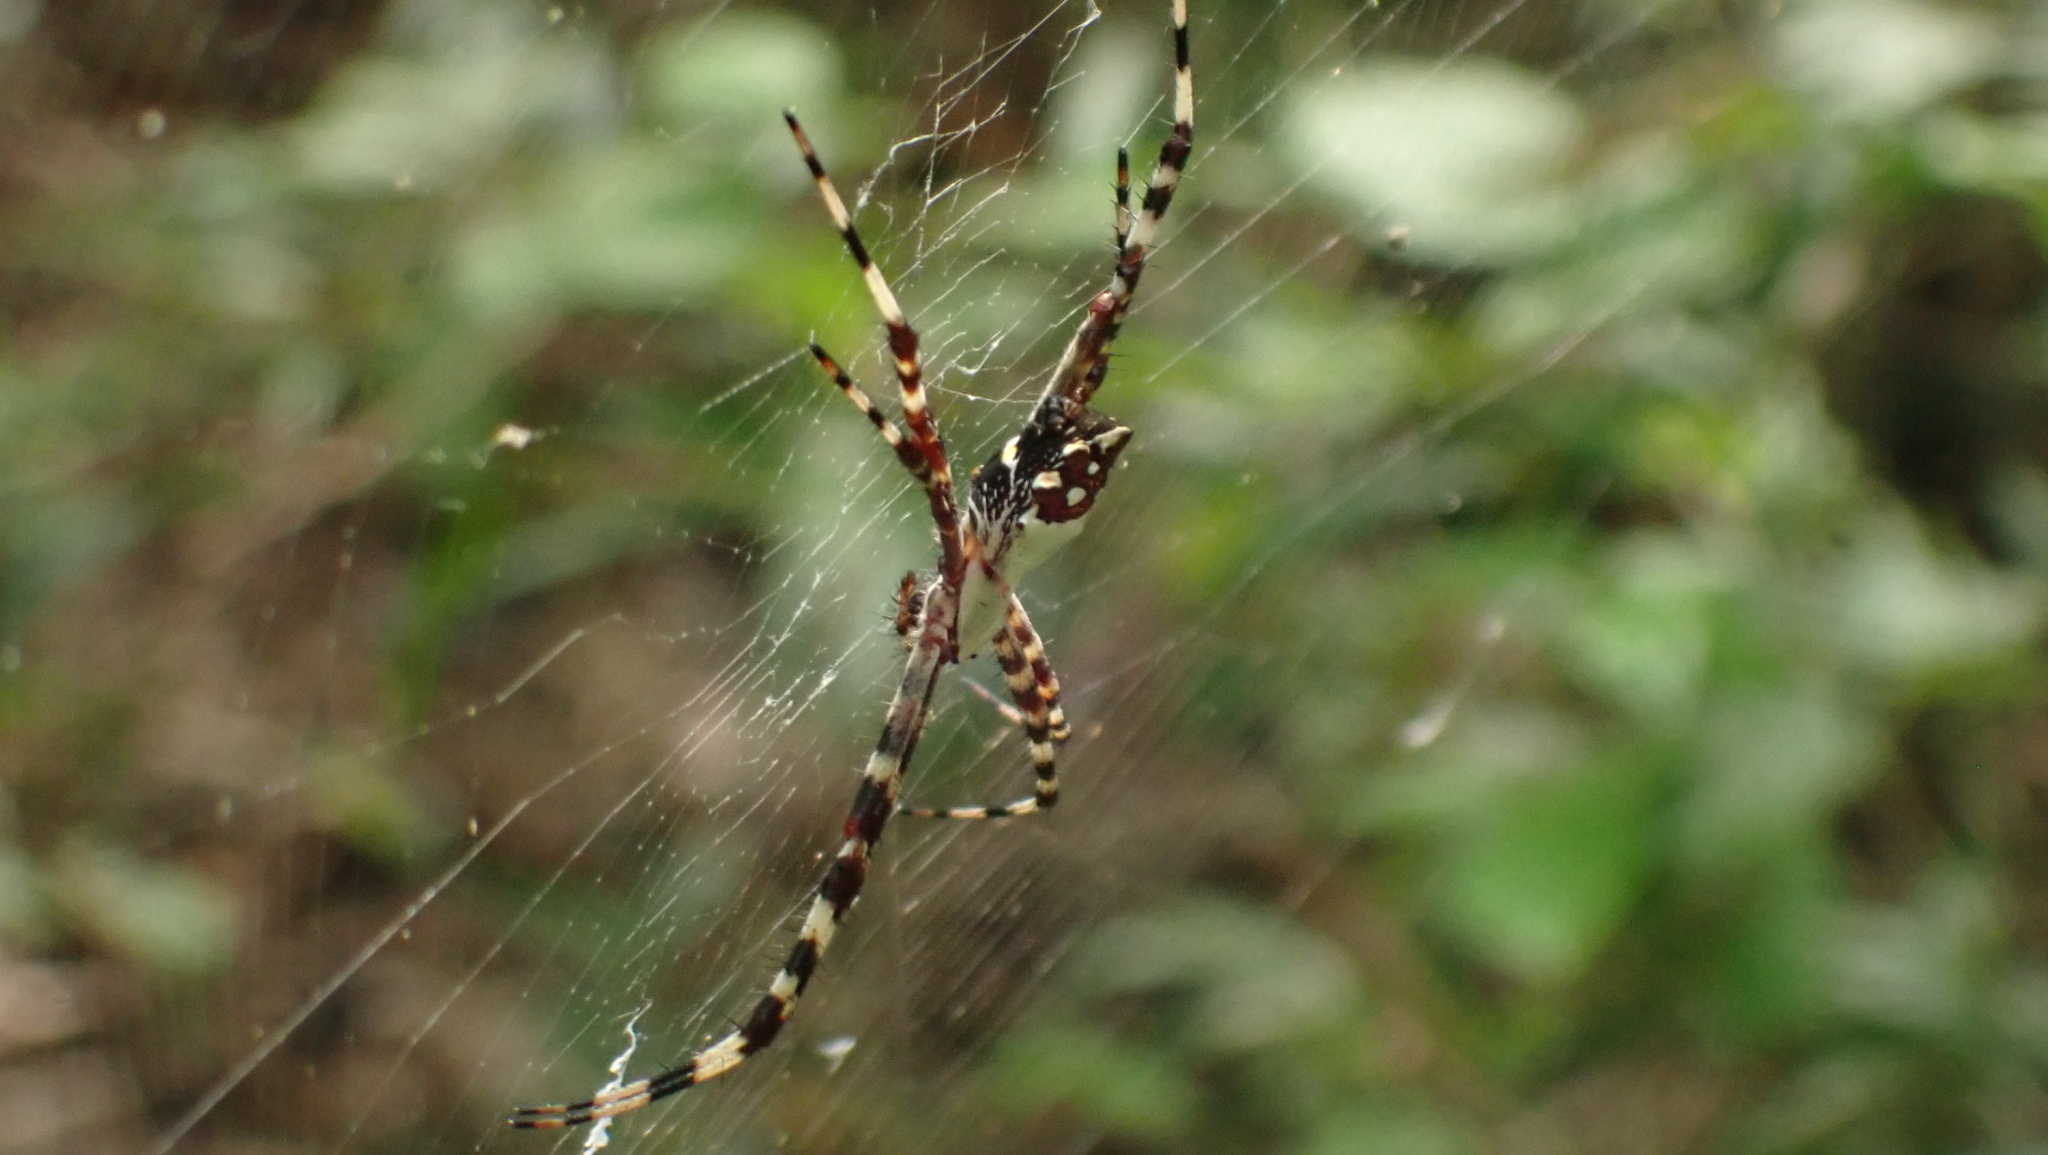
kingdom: Animalia
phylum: Arthropoda
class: Arachnida
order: Araneae
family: Araneidae
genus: Argiope
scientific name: Argiope argentata
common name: Orb weavers
